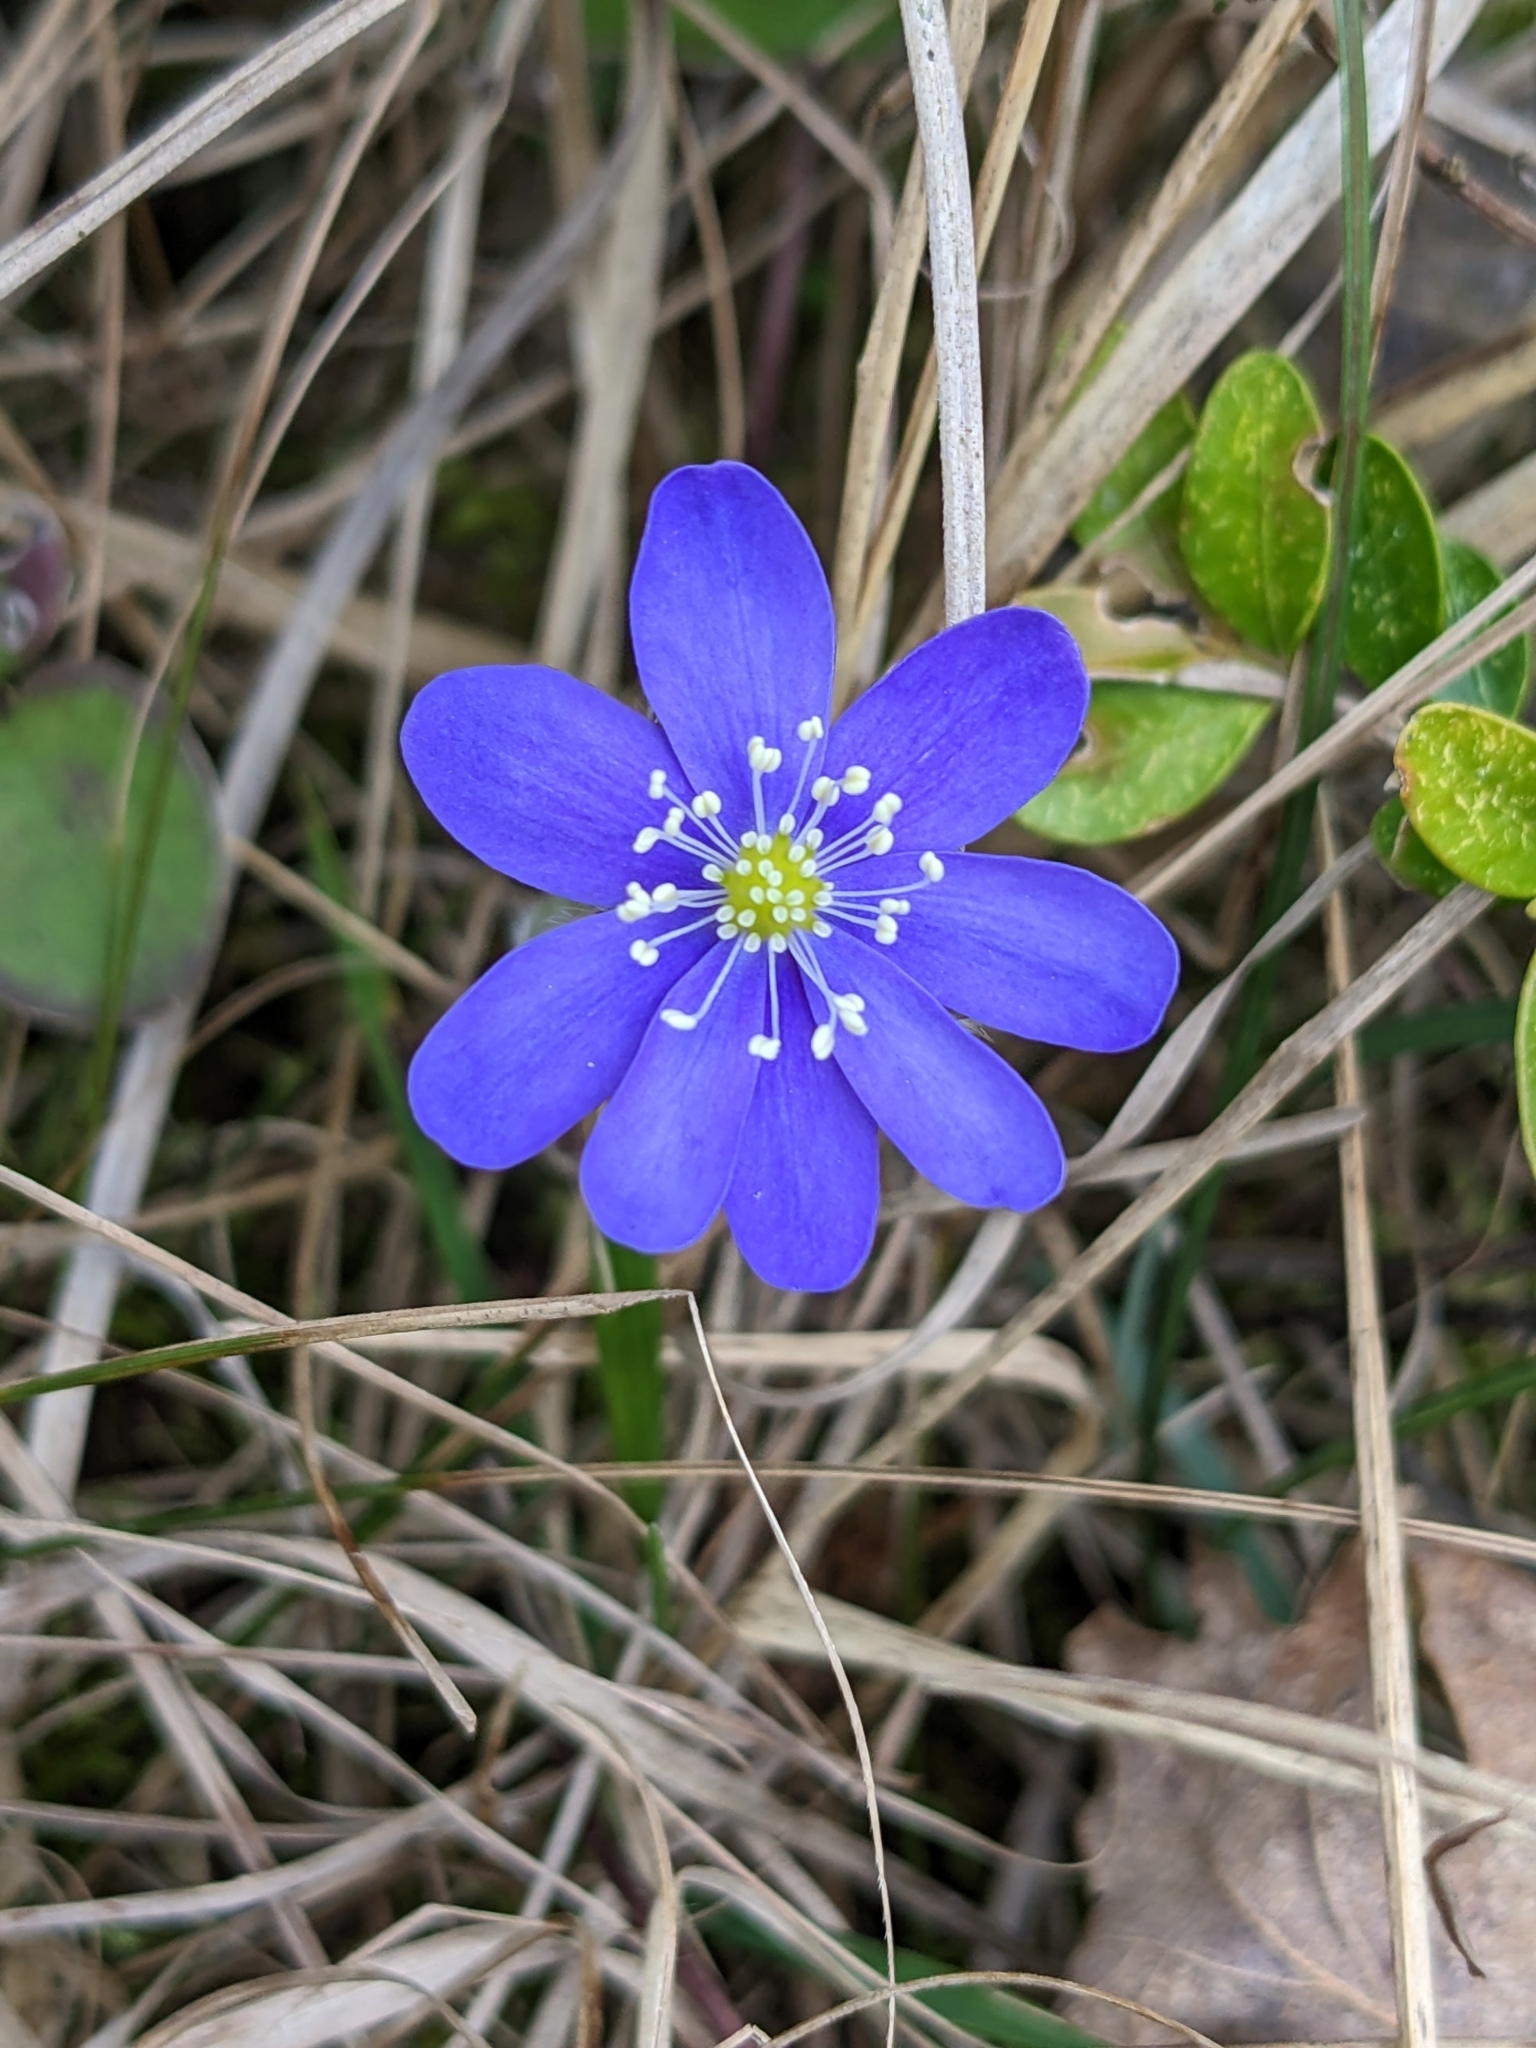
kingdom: Plantae
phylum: Tracheophyta
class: Magnoliopsida
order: Ranunculales
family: Ranunculaceae
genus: Hepatica
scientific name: Hepatica nobilis
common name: Liverleaf
